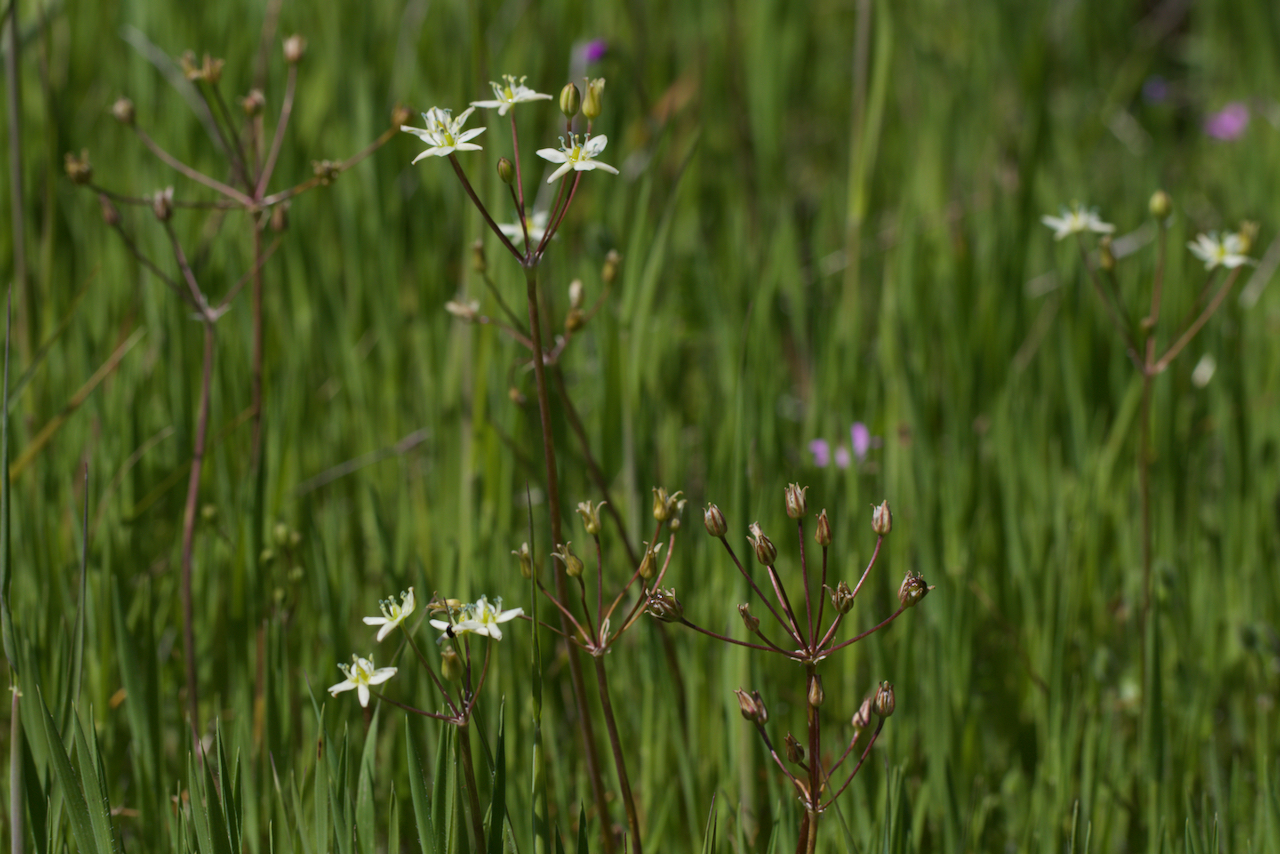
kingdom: Plantae
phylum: Tracheophyta
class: Liliopsida
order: Asparagales
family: Asparagaceae
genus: Muilla
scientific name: Muilla maritima
